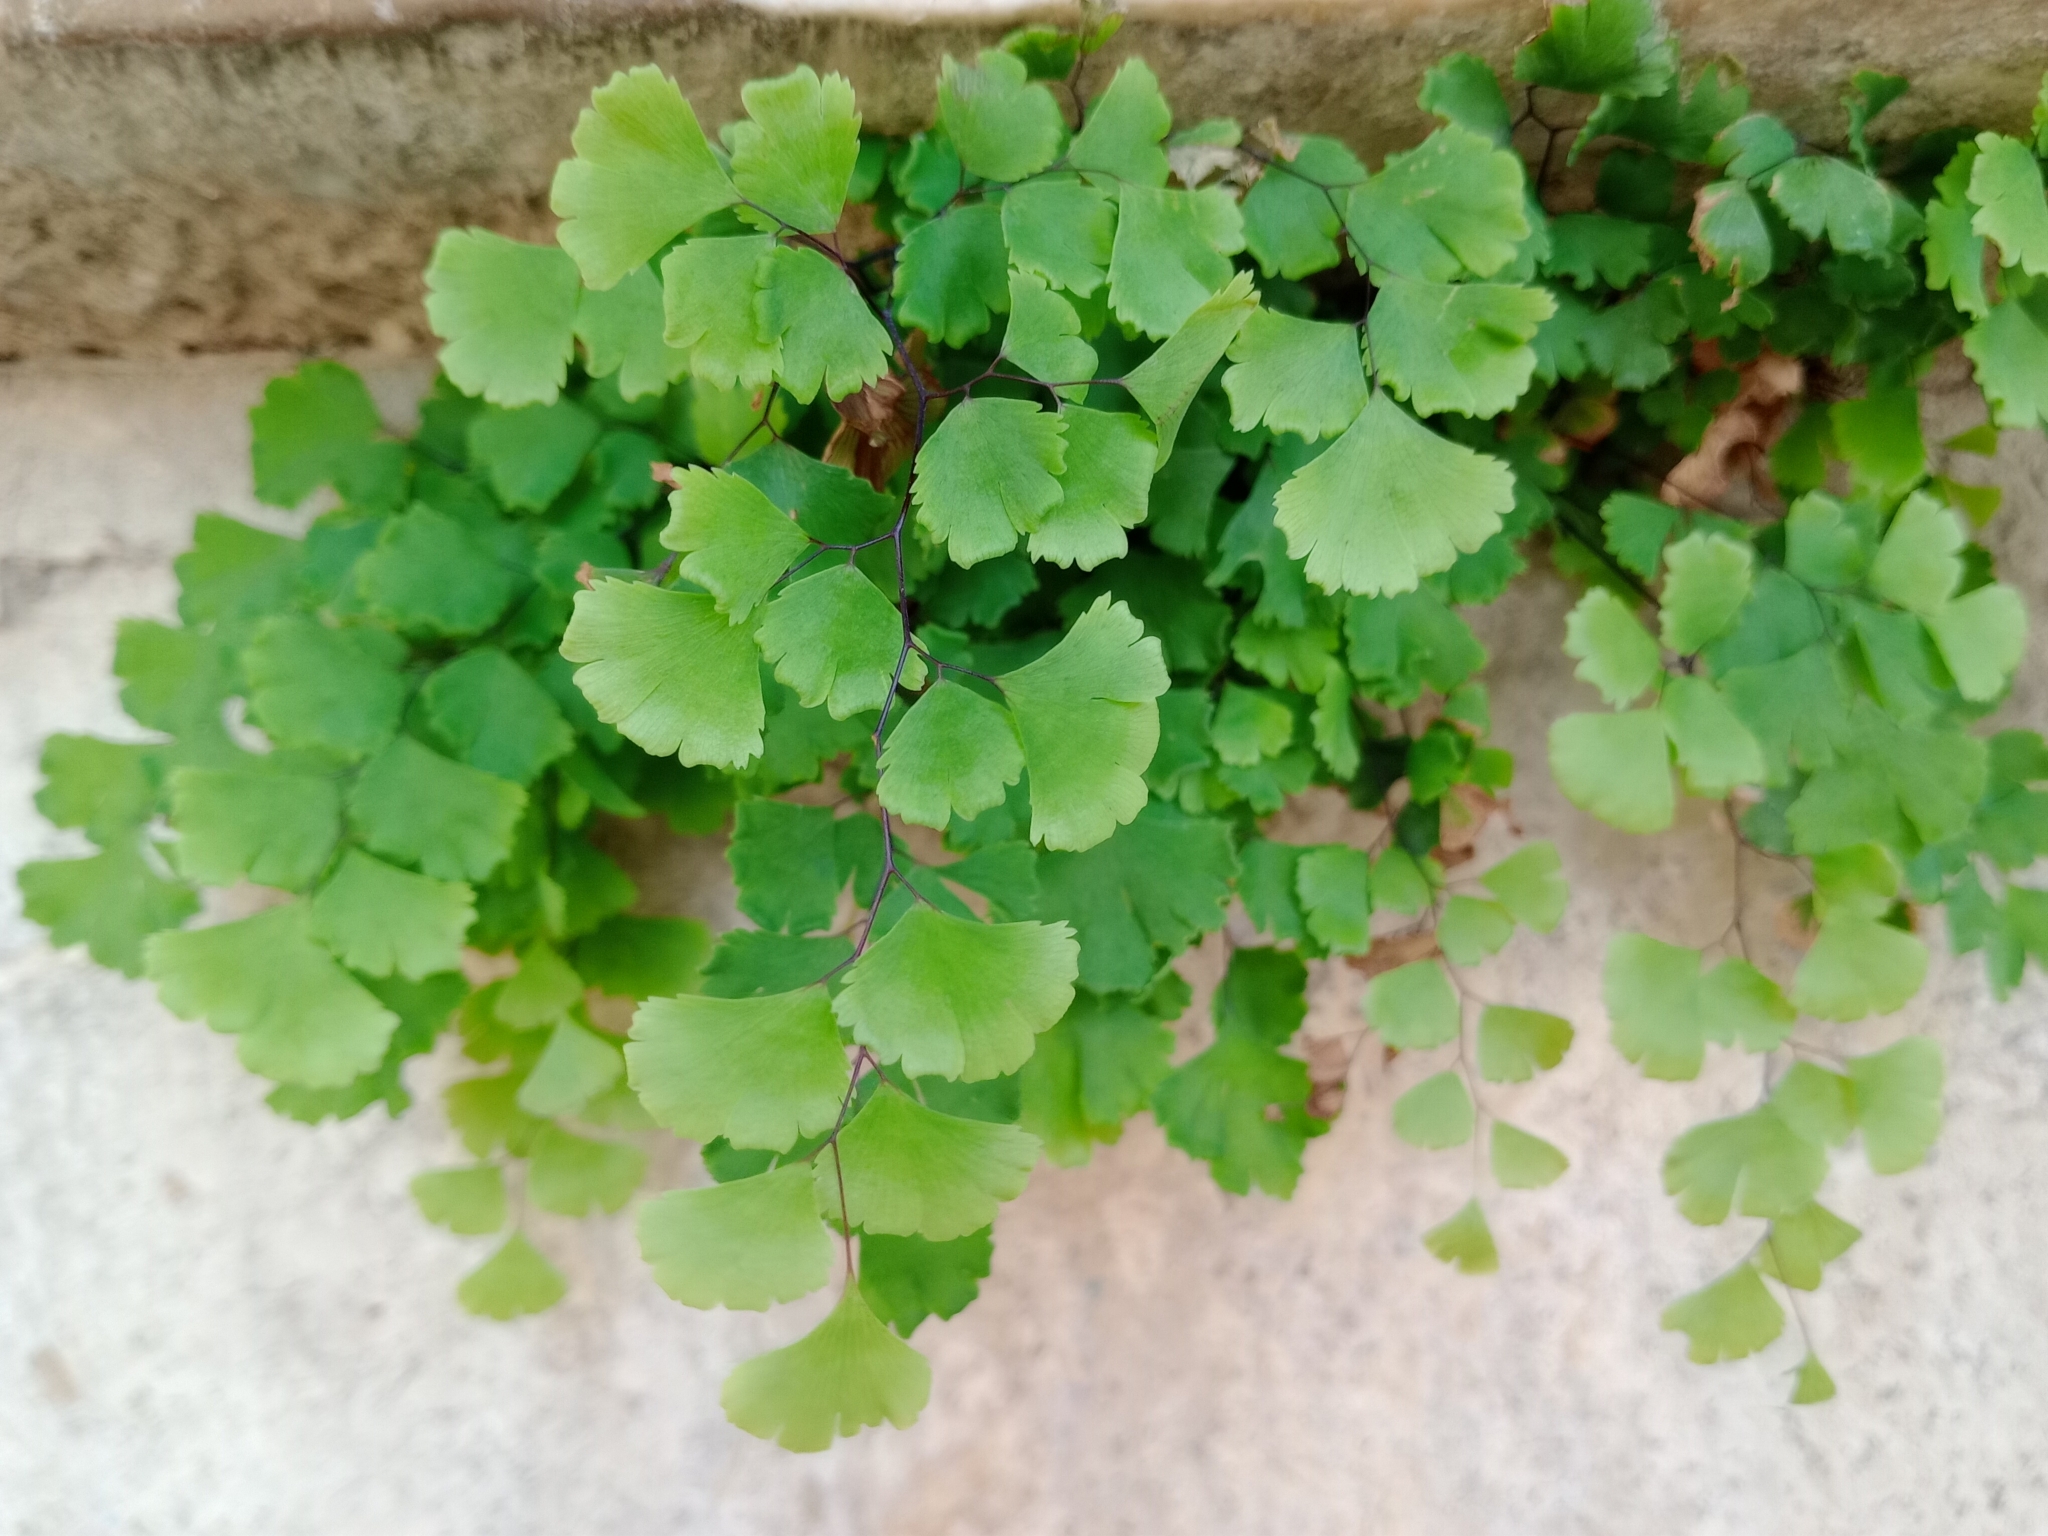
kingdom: Plantae
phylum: Tracheophyta
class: Polypodiopsida
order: Polypodiales
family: Pteridaceae
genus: Adiantum
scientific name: Adiantum capillus-veneris
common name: Maidenhair fern
